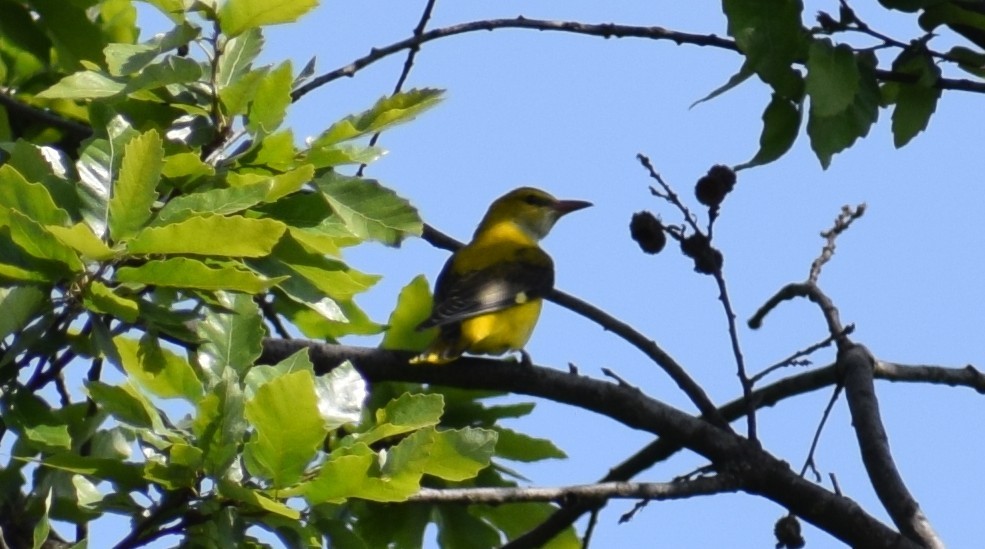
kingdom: Animalia
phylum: Chordata
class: Aves
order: Passeriformes
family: Oriolidae
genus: Oriolus
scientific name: Oriolus oriolus
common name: Eurasian golden oriole
